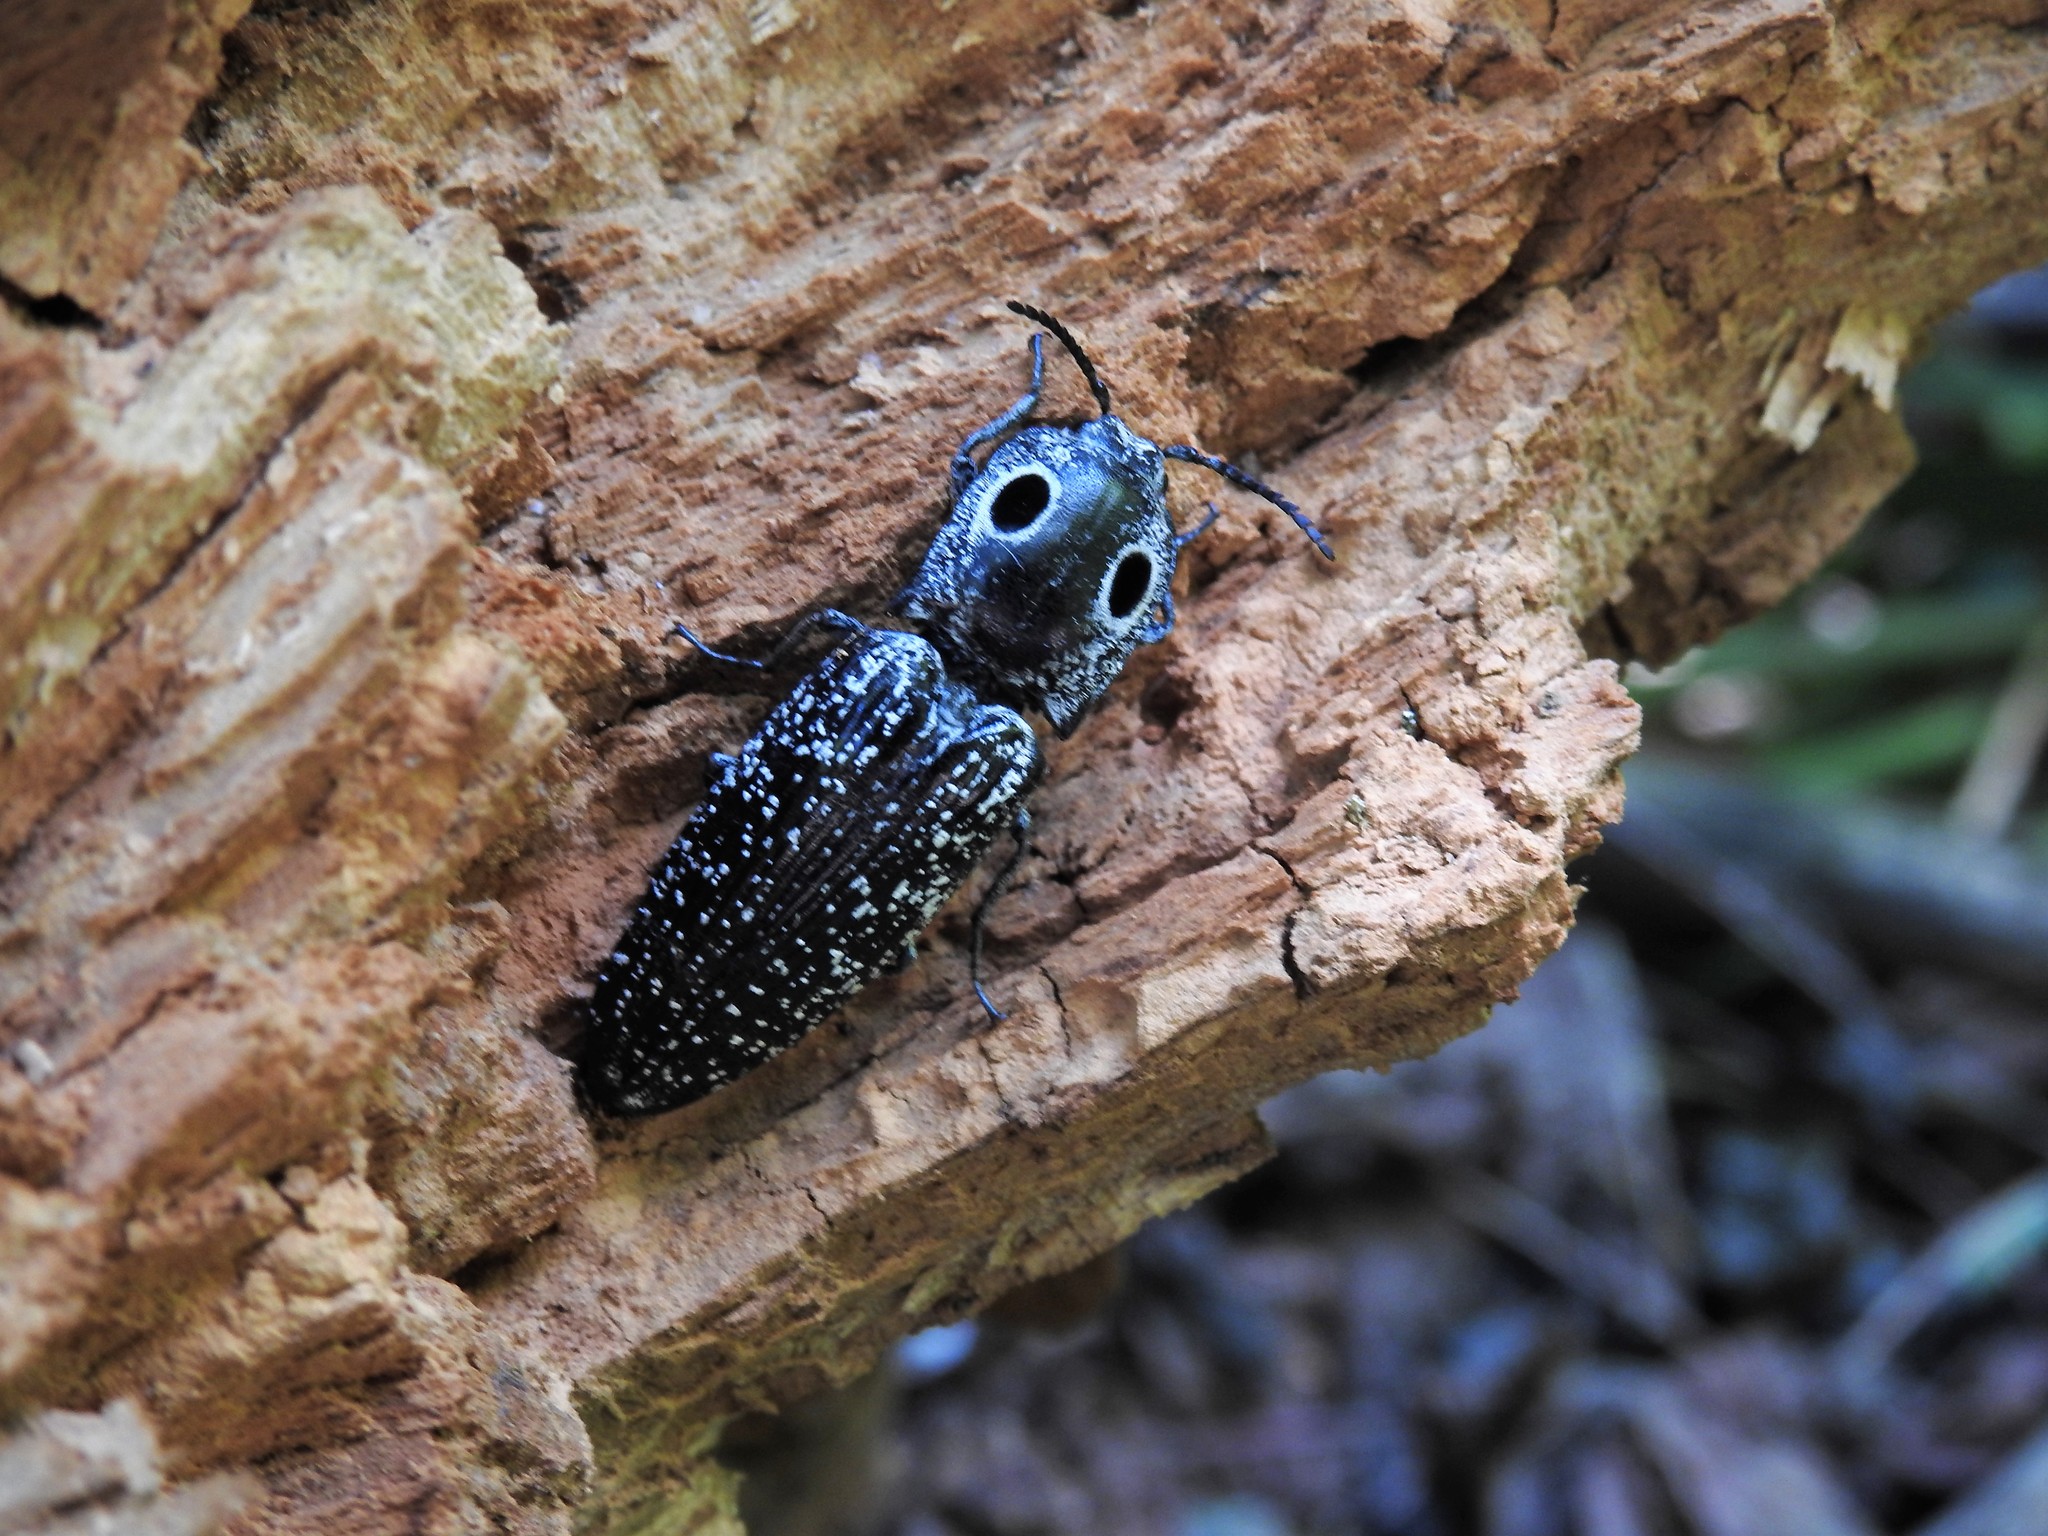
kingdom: Animalia
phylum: Arthropoda
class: Insecta
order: Coleoptera
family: Elateridae
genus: Alaus
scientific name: Alaus oculatus
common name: Eastern eyed click beetle
